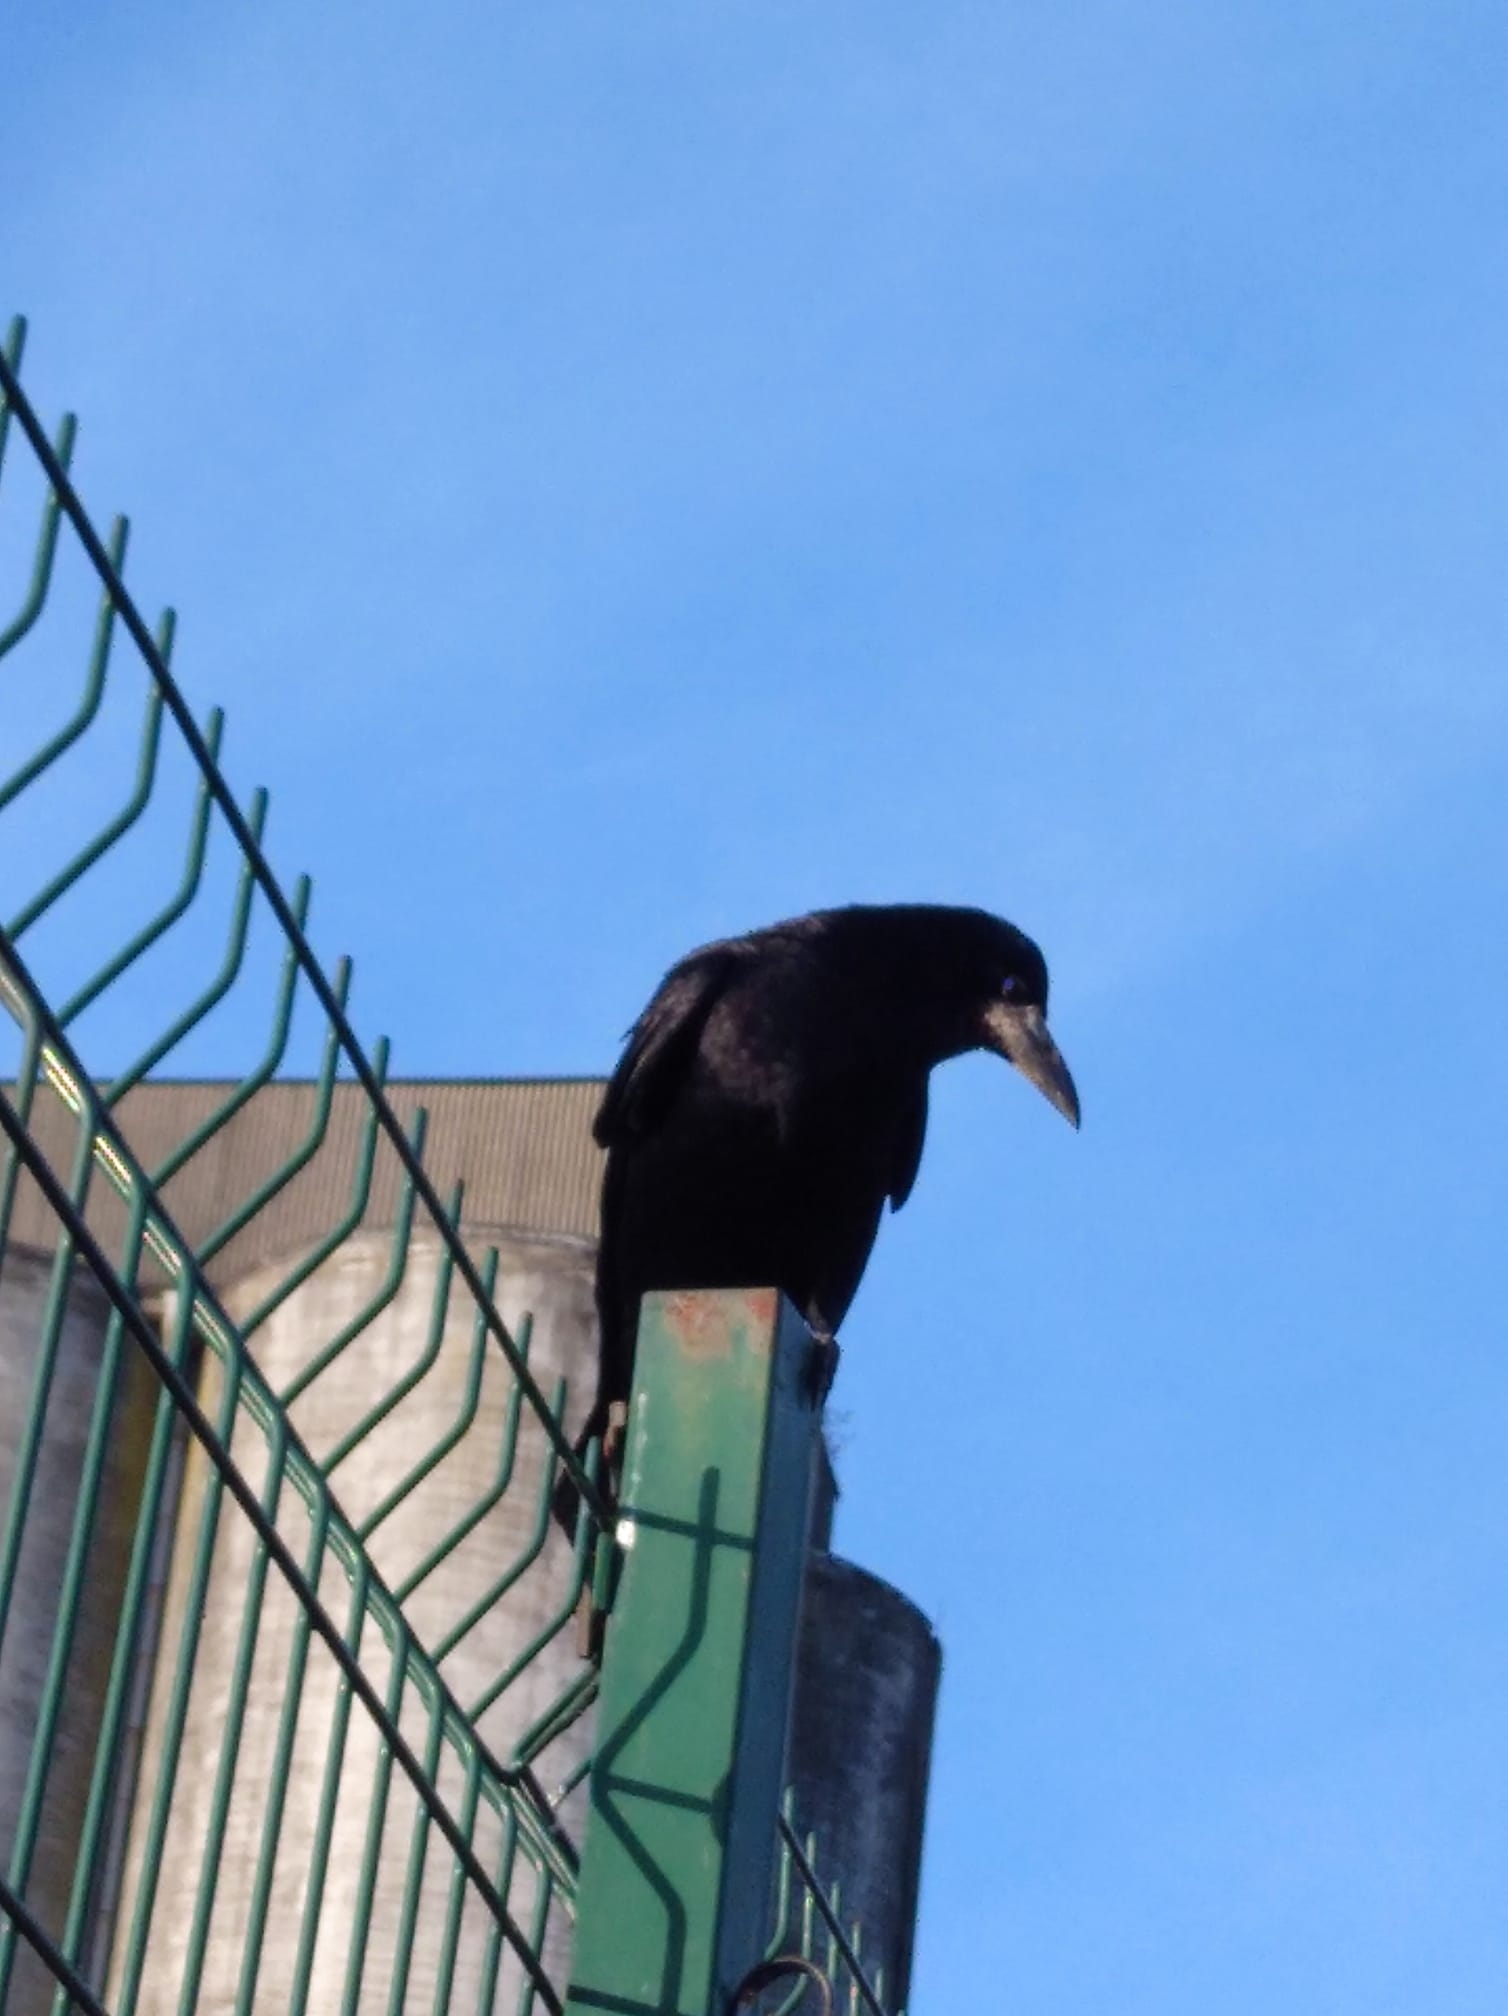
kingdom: Animalia
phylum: Chordata
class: Aves
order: Passeriformes
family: Corvidae
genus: Corvus
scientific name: Corvus frugilegus
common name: Rook
